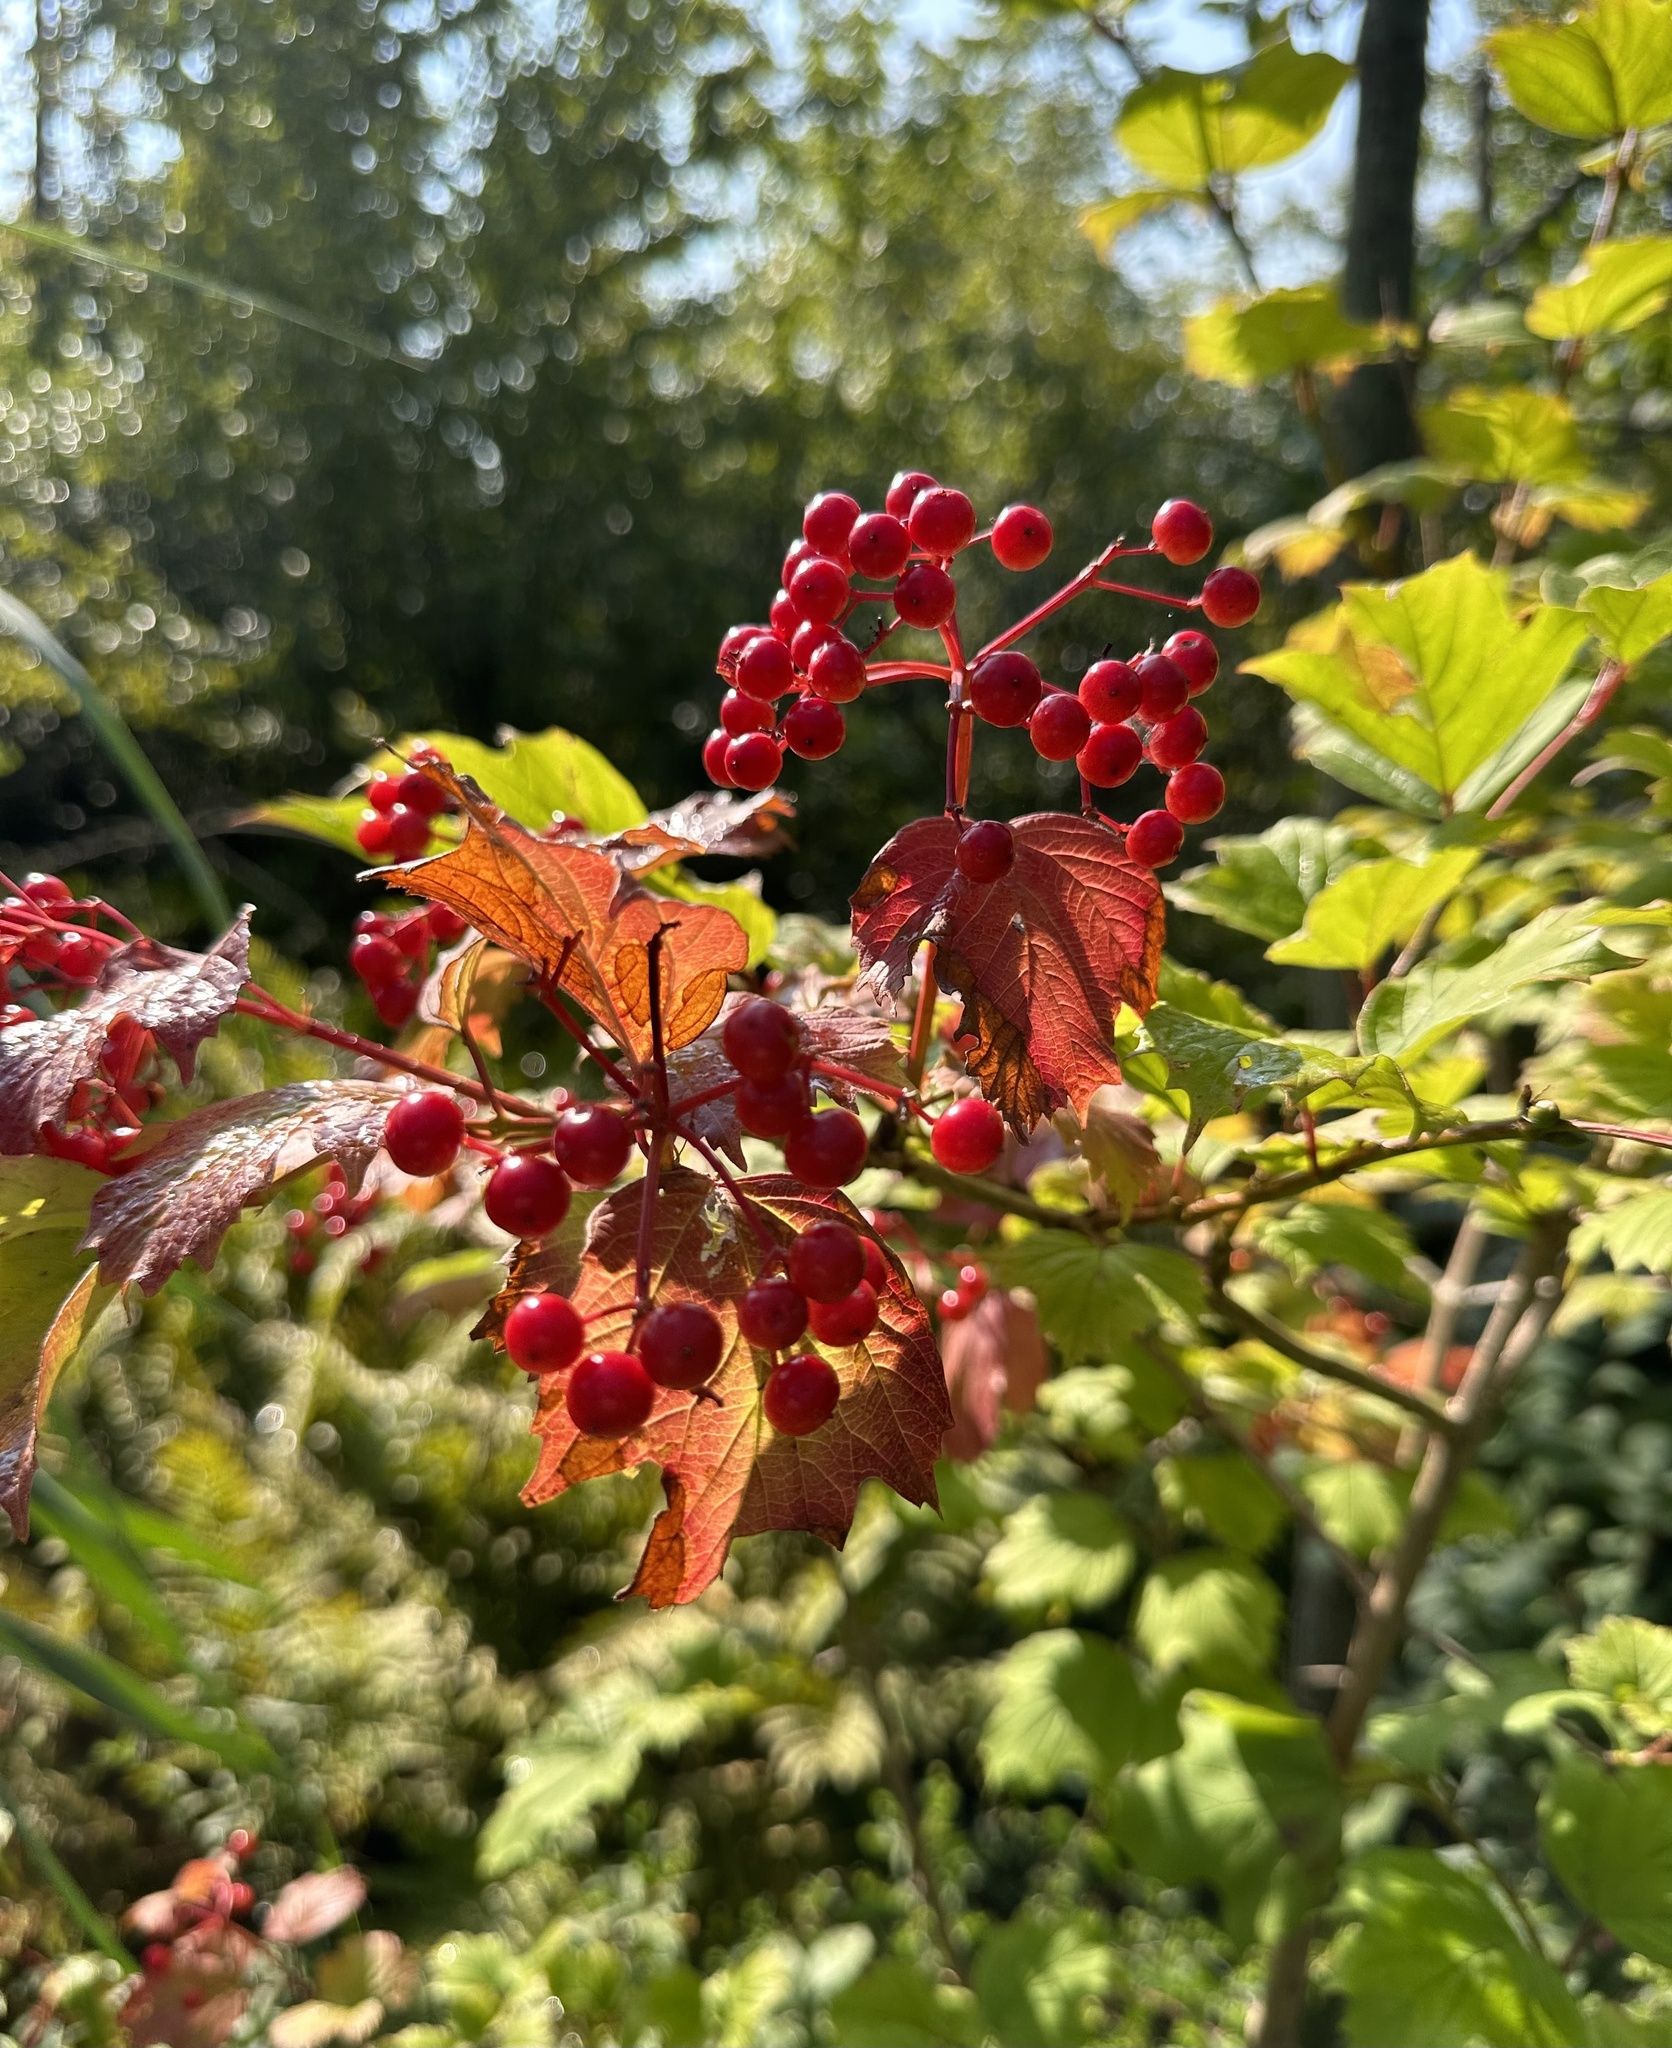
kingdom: Plantae
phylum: Tracheophyta
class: Magnoliopsida
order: Dipsacales
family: Viburnaceae
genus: Viburnum
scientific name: Viburnum opulus
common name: Guelder-rose
